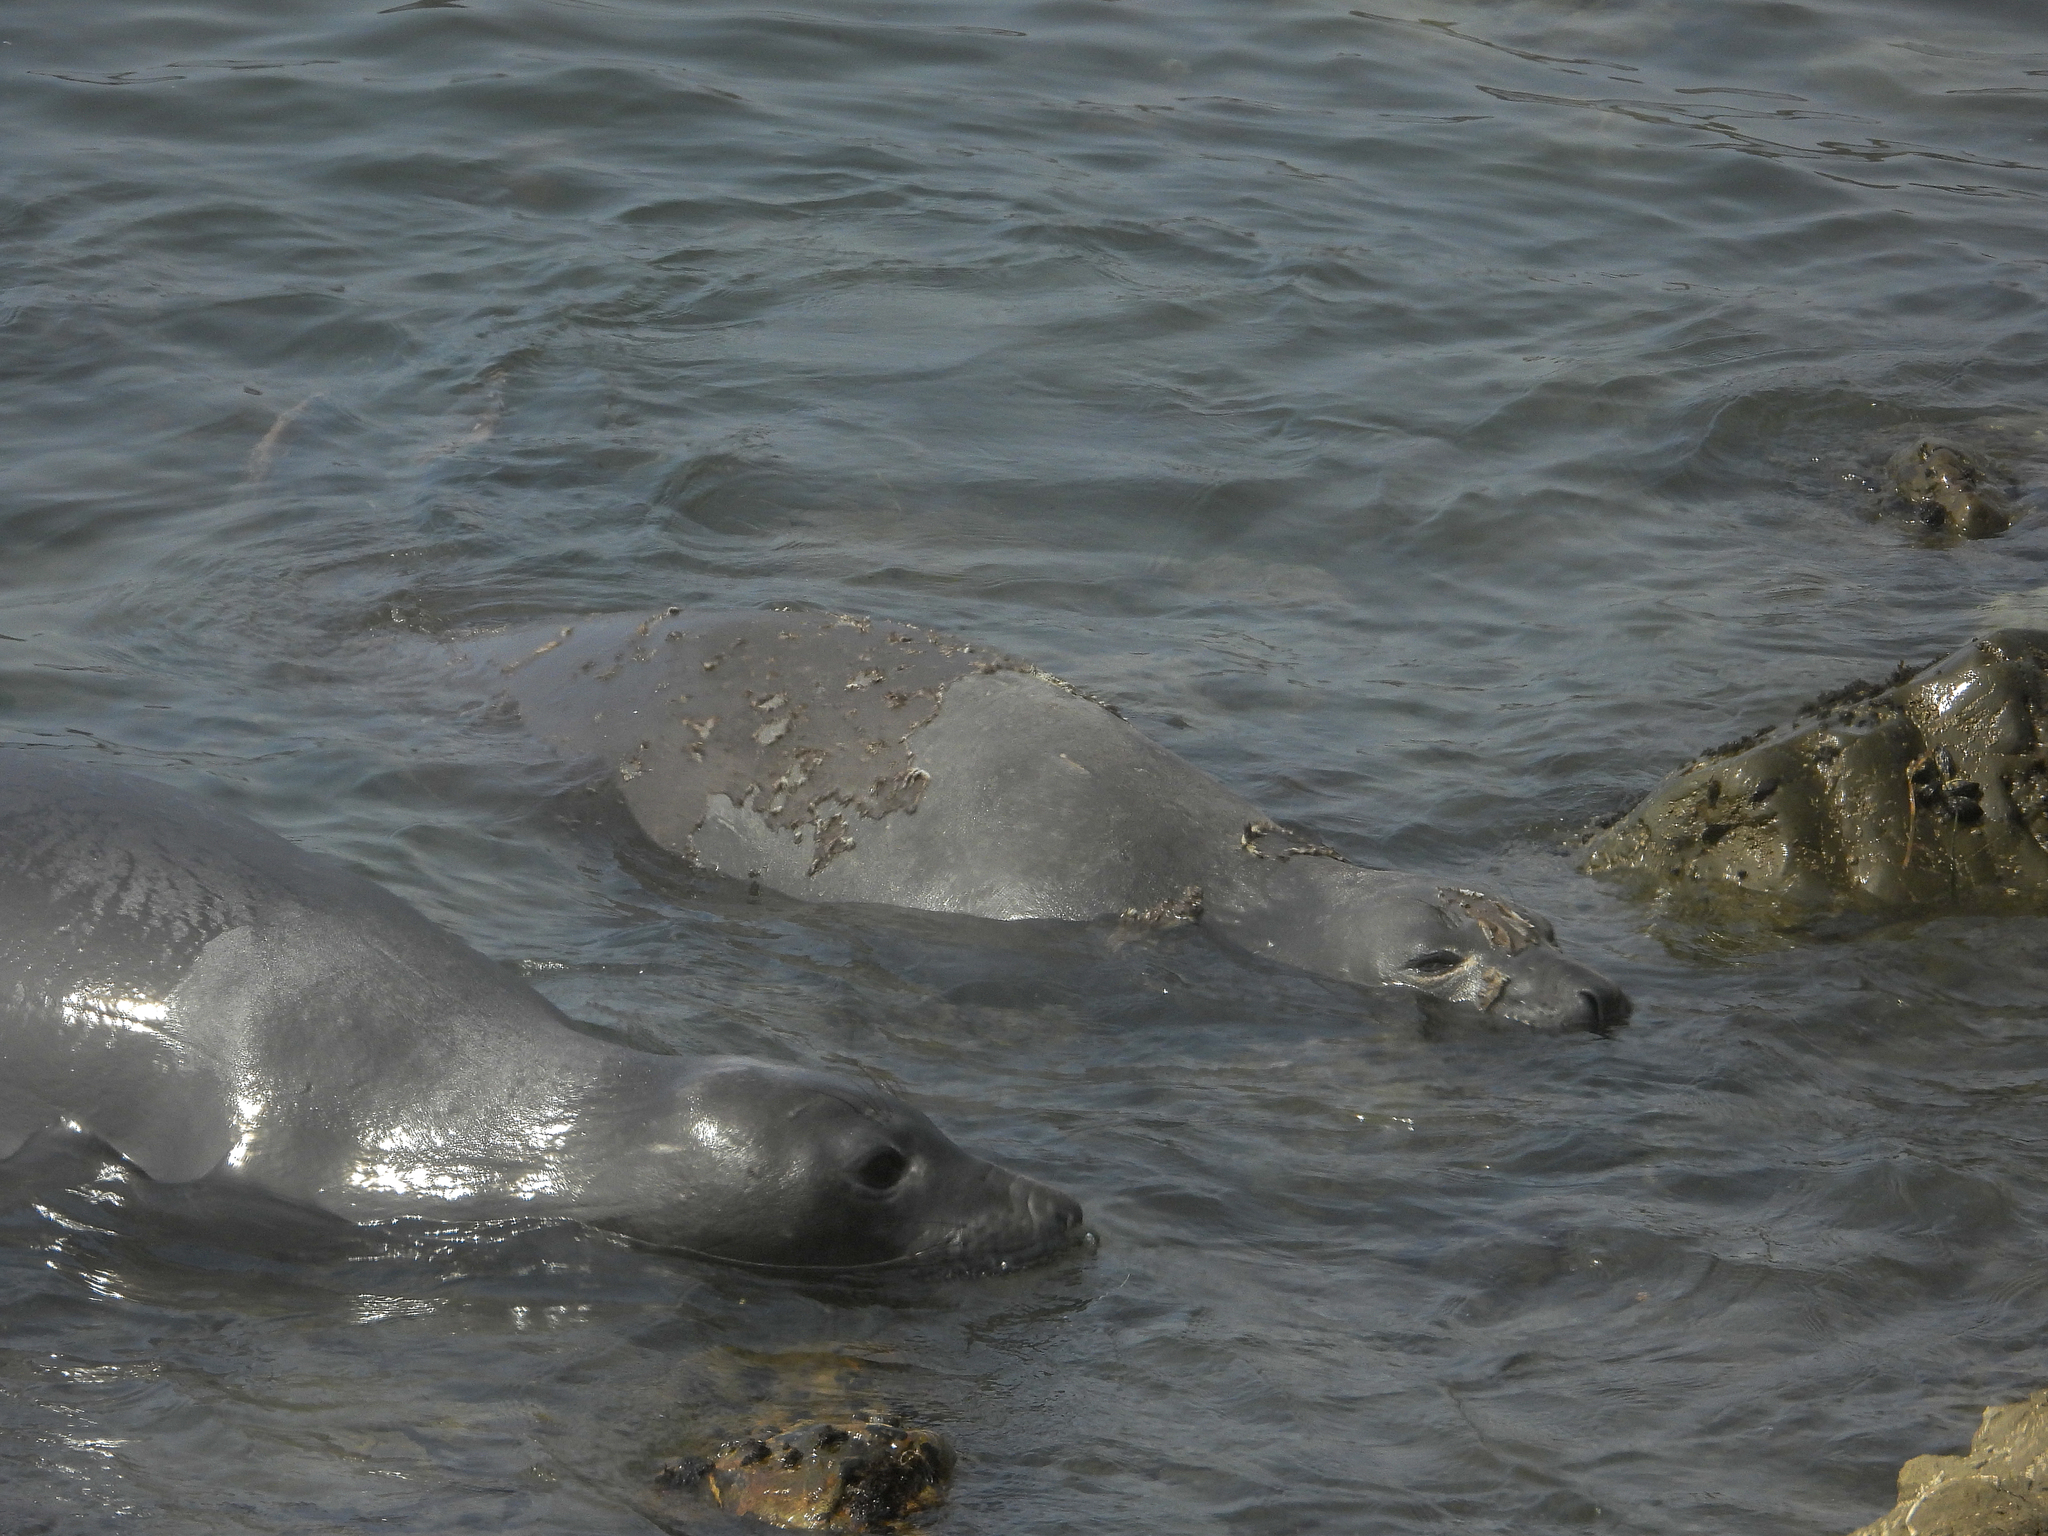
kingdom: Animalia
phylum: Chordata
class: Mammalia
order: Carnivora
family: Phocidae
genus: Mirounga
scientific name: Mirounga angustirostris
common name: Northern elephant seal
